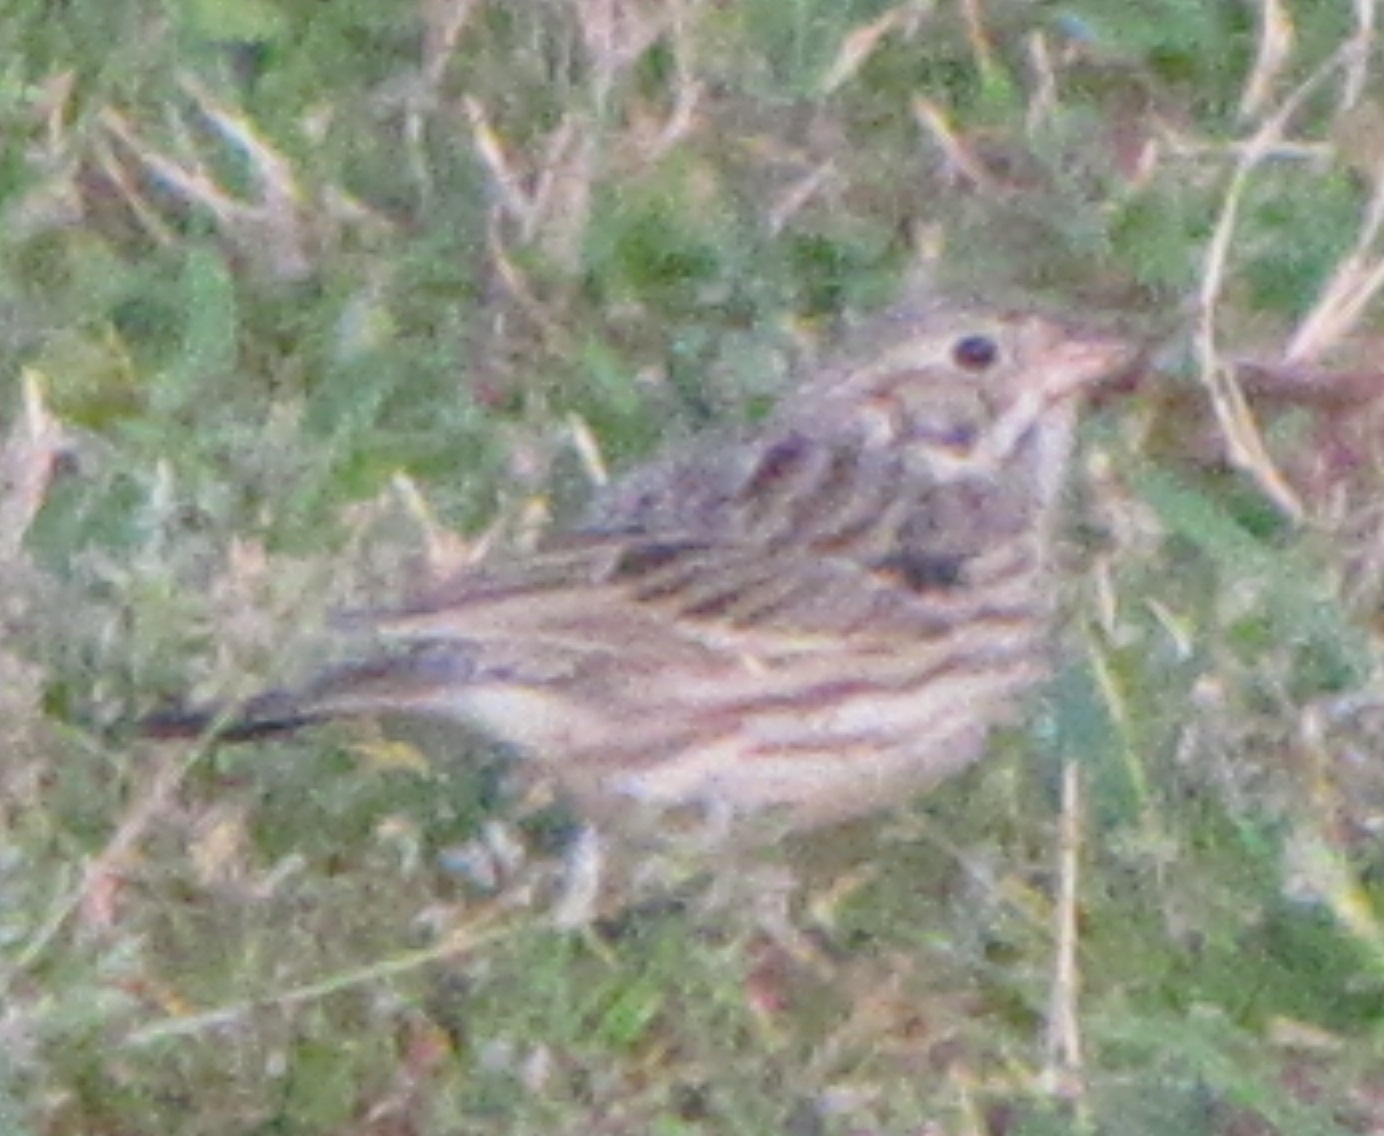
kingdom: Animalia
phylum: Chordata
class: Aves
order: Passeriformes
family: Passerellidae
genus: Pooecetes
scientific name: Pooecetes gramineus
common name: Vesper sparrow
